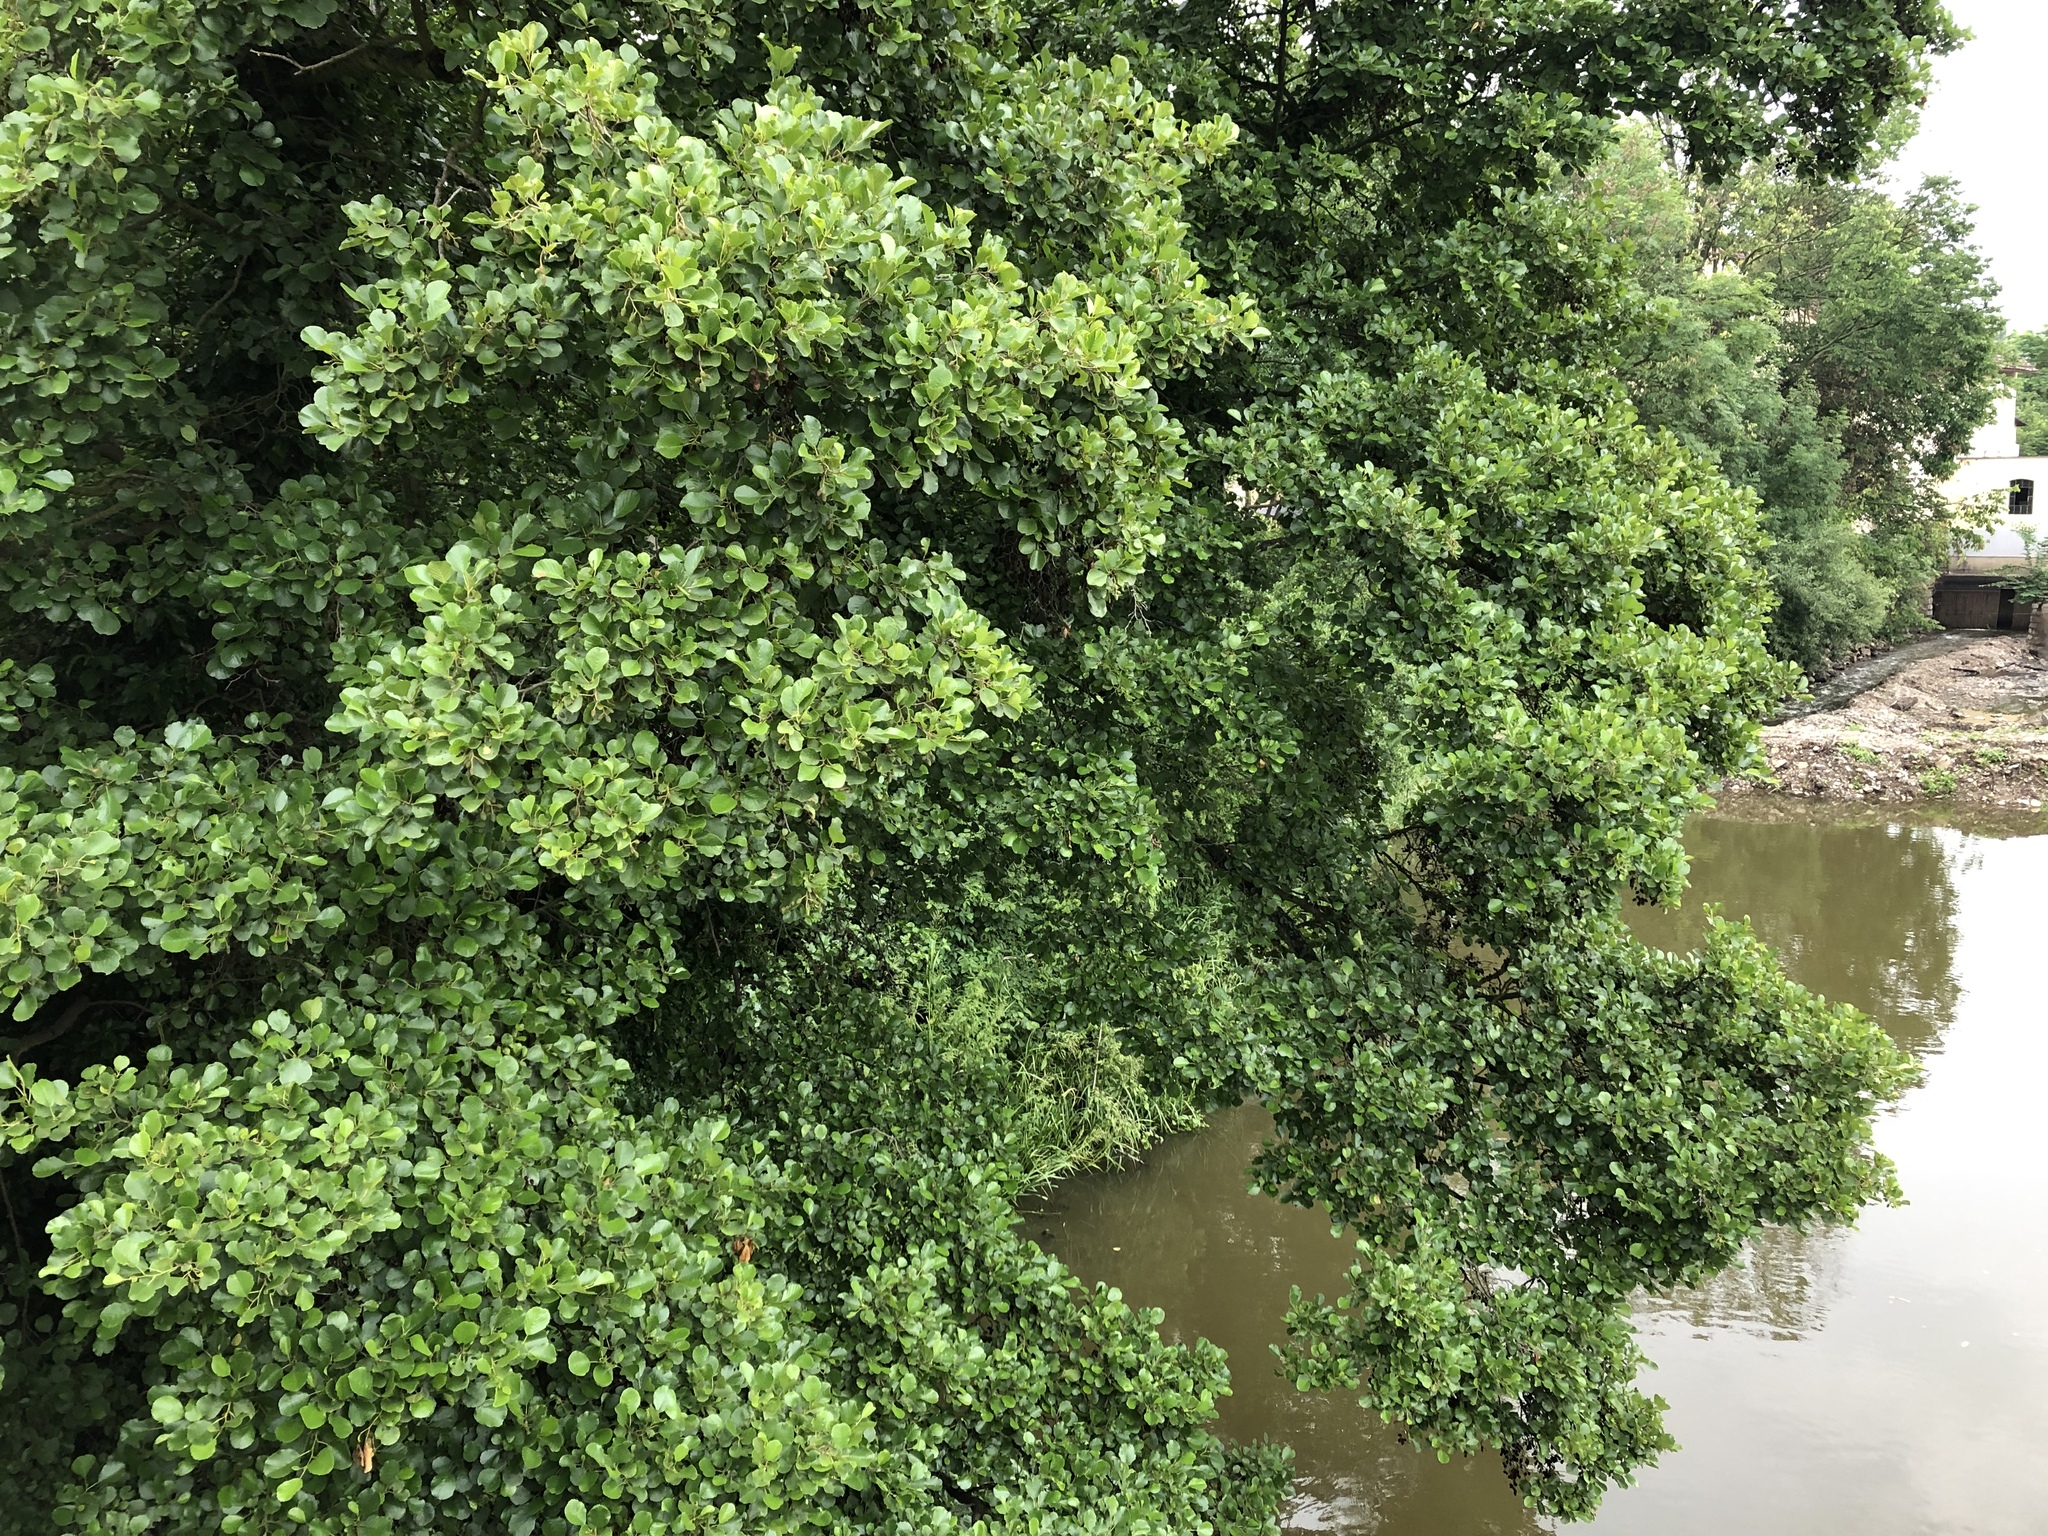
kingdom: Plantae
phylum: Tracheophyta
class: Magnoliopsida
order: Fagales
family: Betulaceae
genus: Alnus
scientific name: Alnus glutinosa
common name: Black alder
